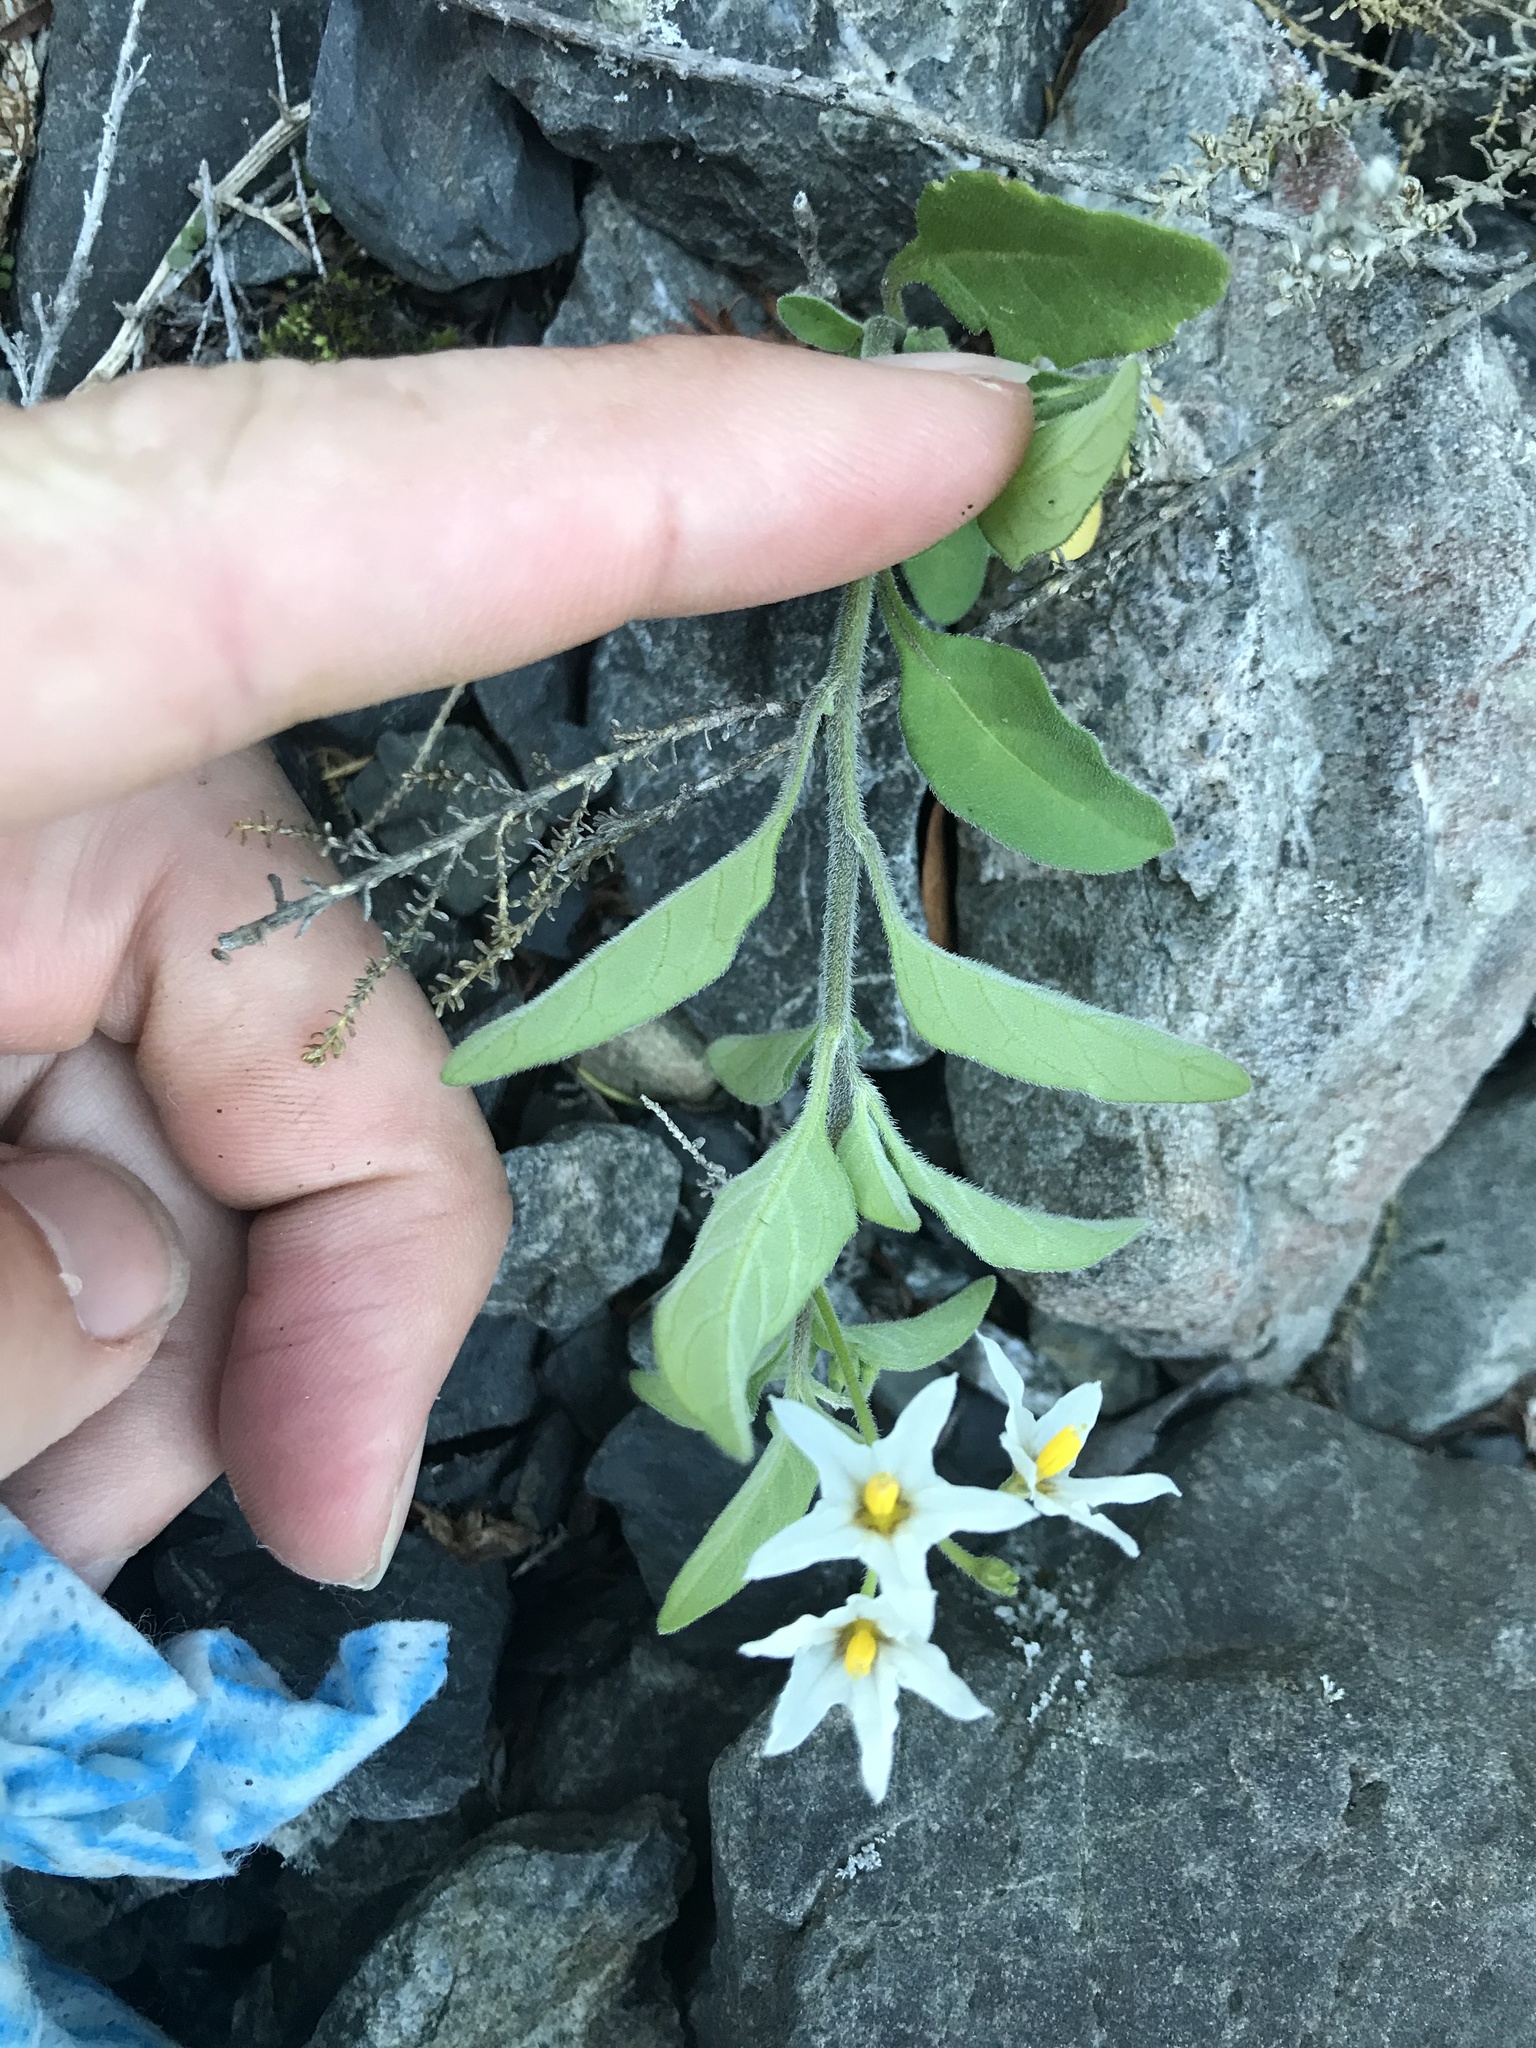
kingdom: Plantae
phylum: Tracheophyta
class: Magnoliopsida
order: Solanales
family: Solanaceae
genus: Solanum
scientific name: Solanum chenopodioides
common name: Tall nightshade
